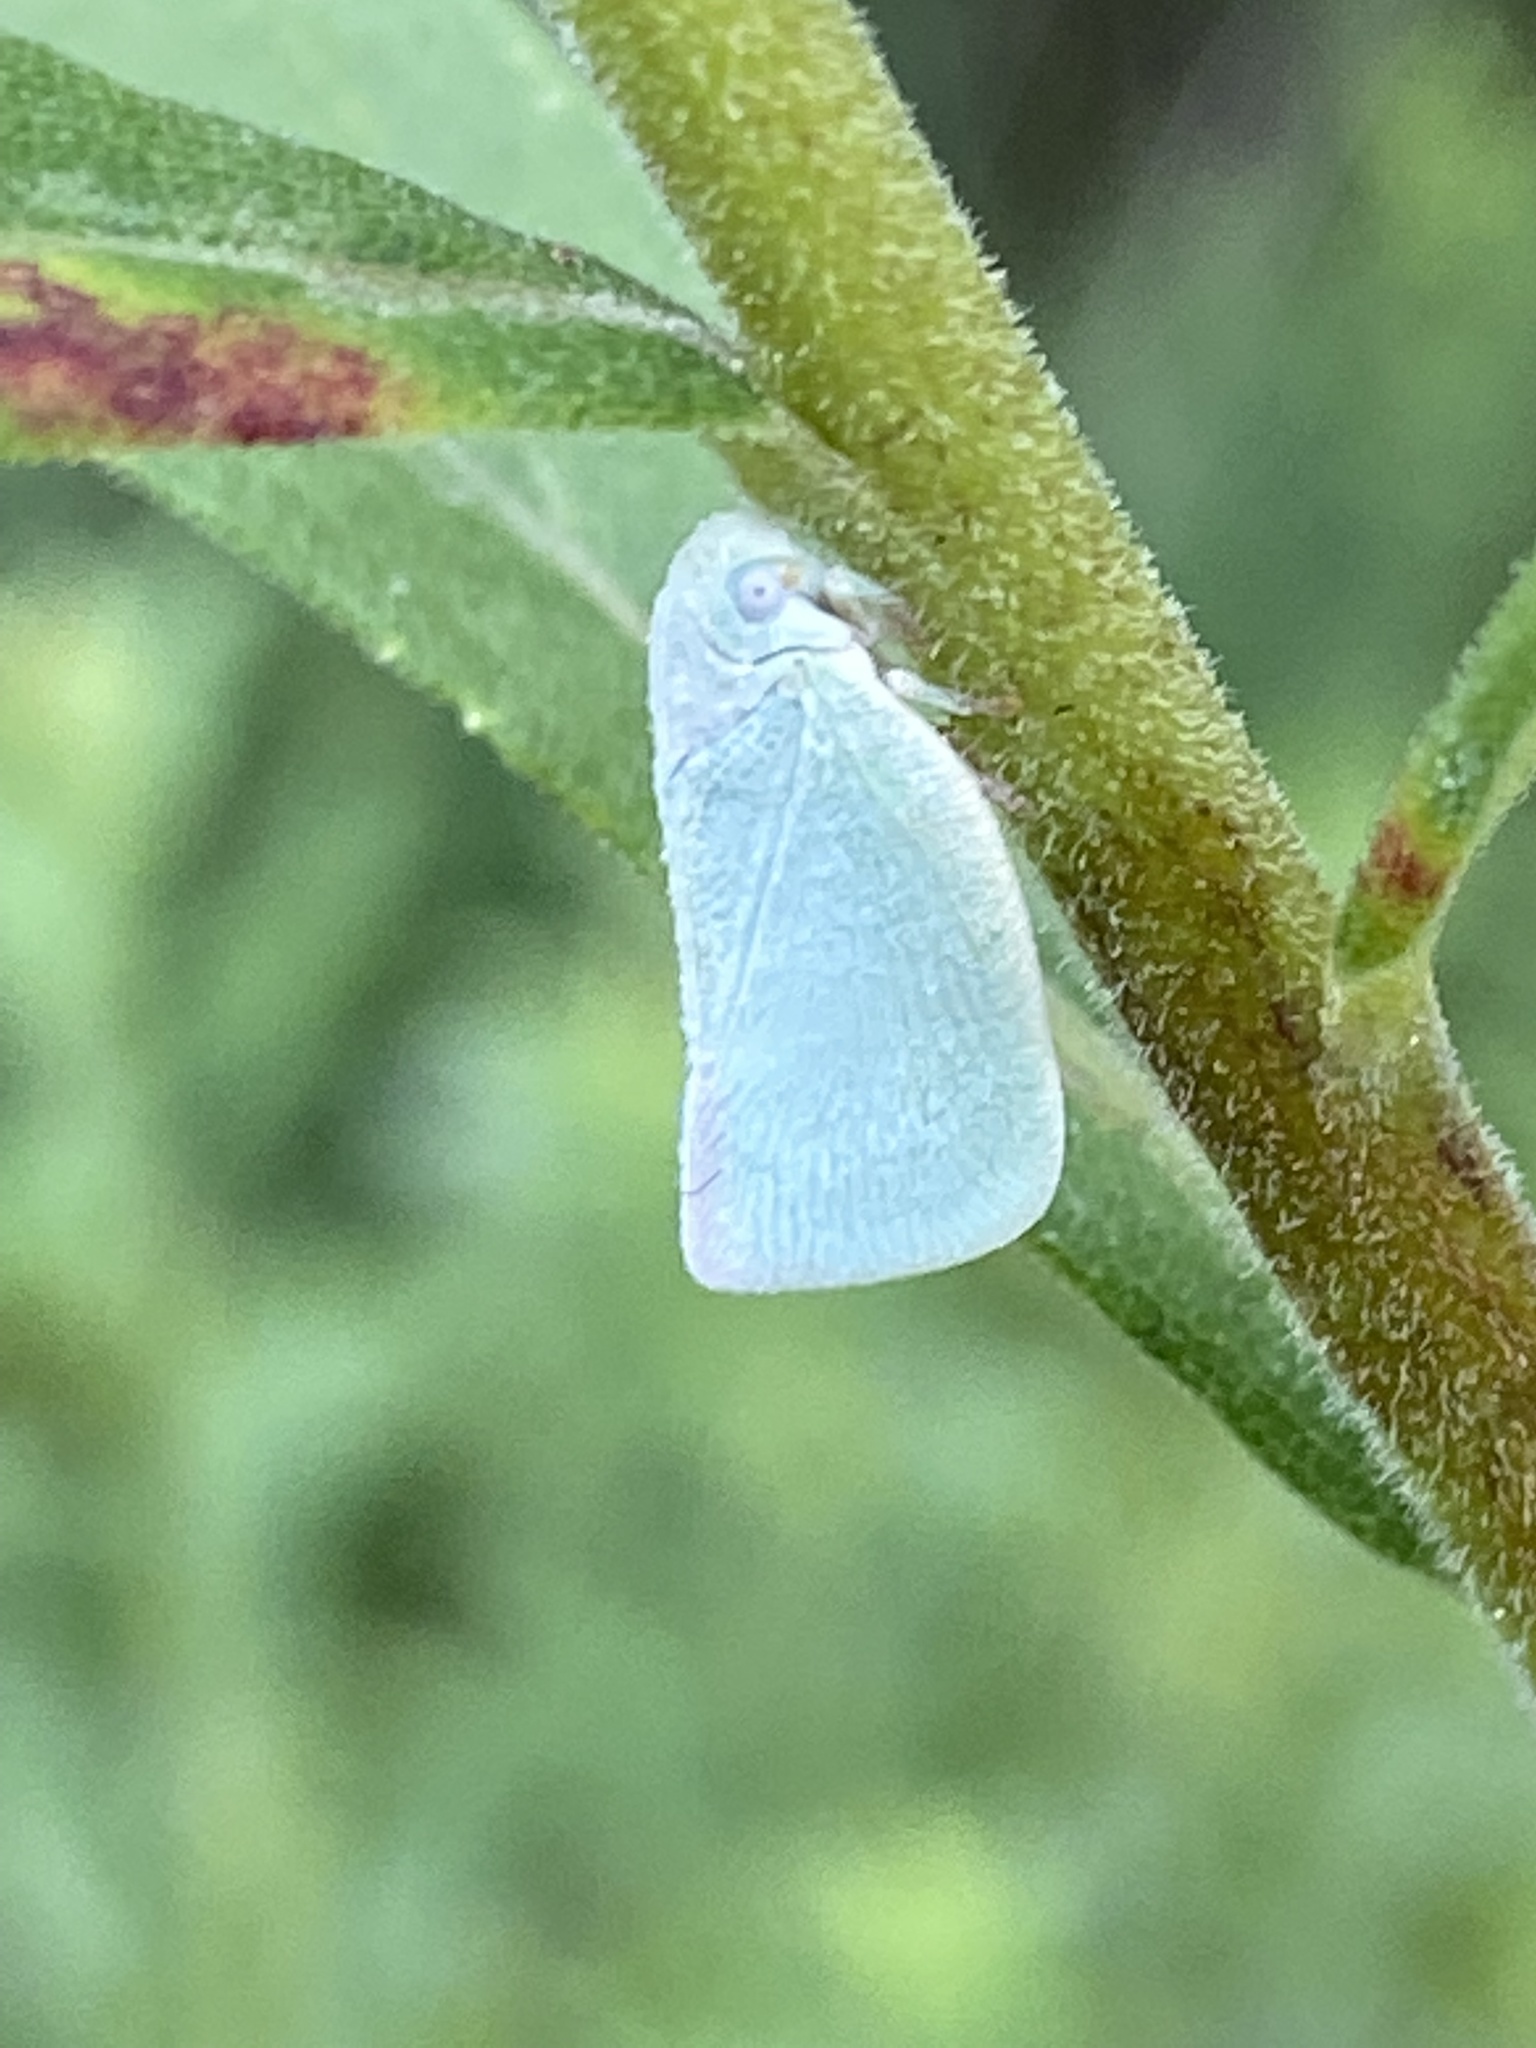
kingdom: Animalia
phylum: Arthropoda
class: Insecta
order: Hemiptera
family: Flatidae
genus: Flatormenis
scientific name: Flatormenis proxima
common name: Northern flatid planthopper
